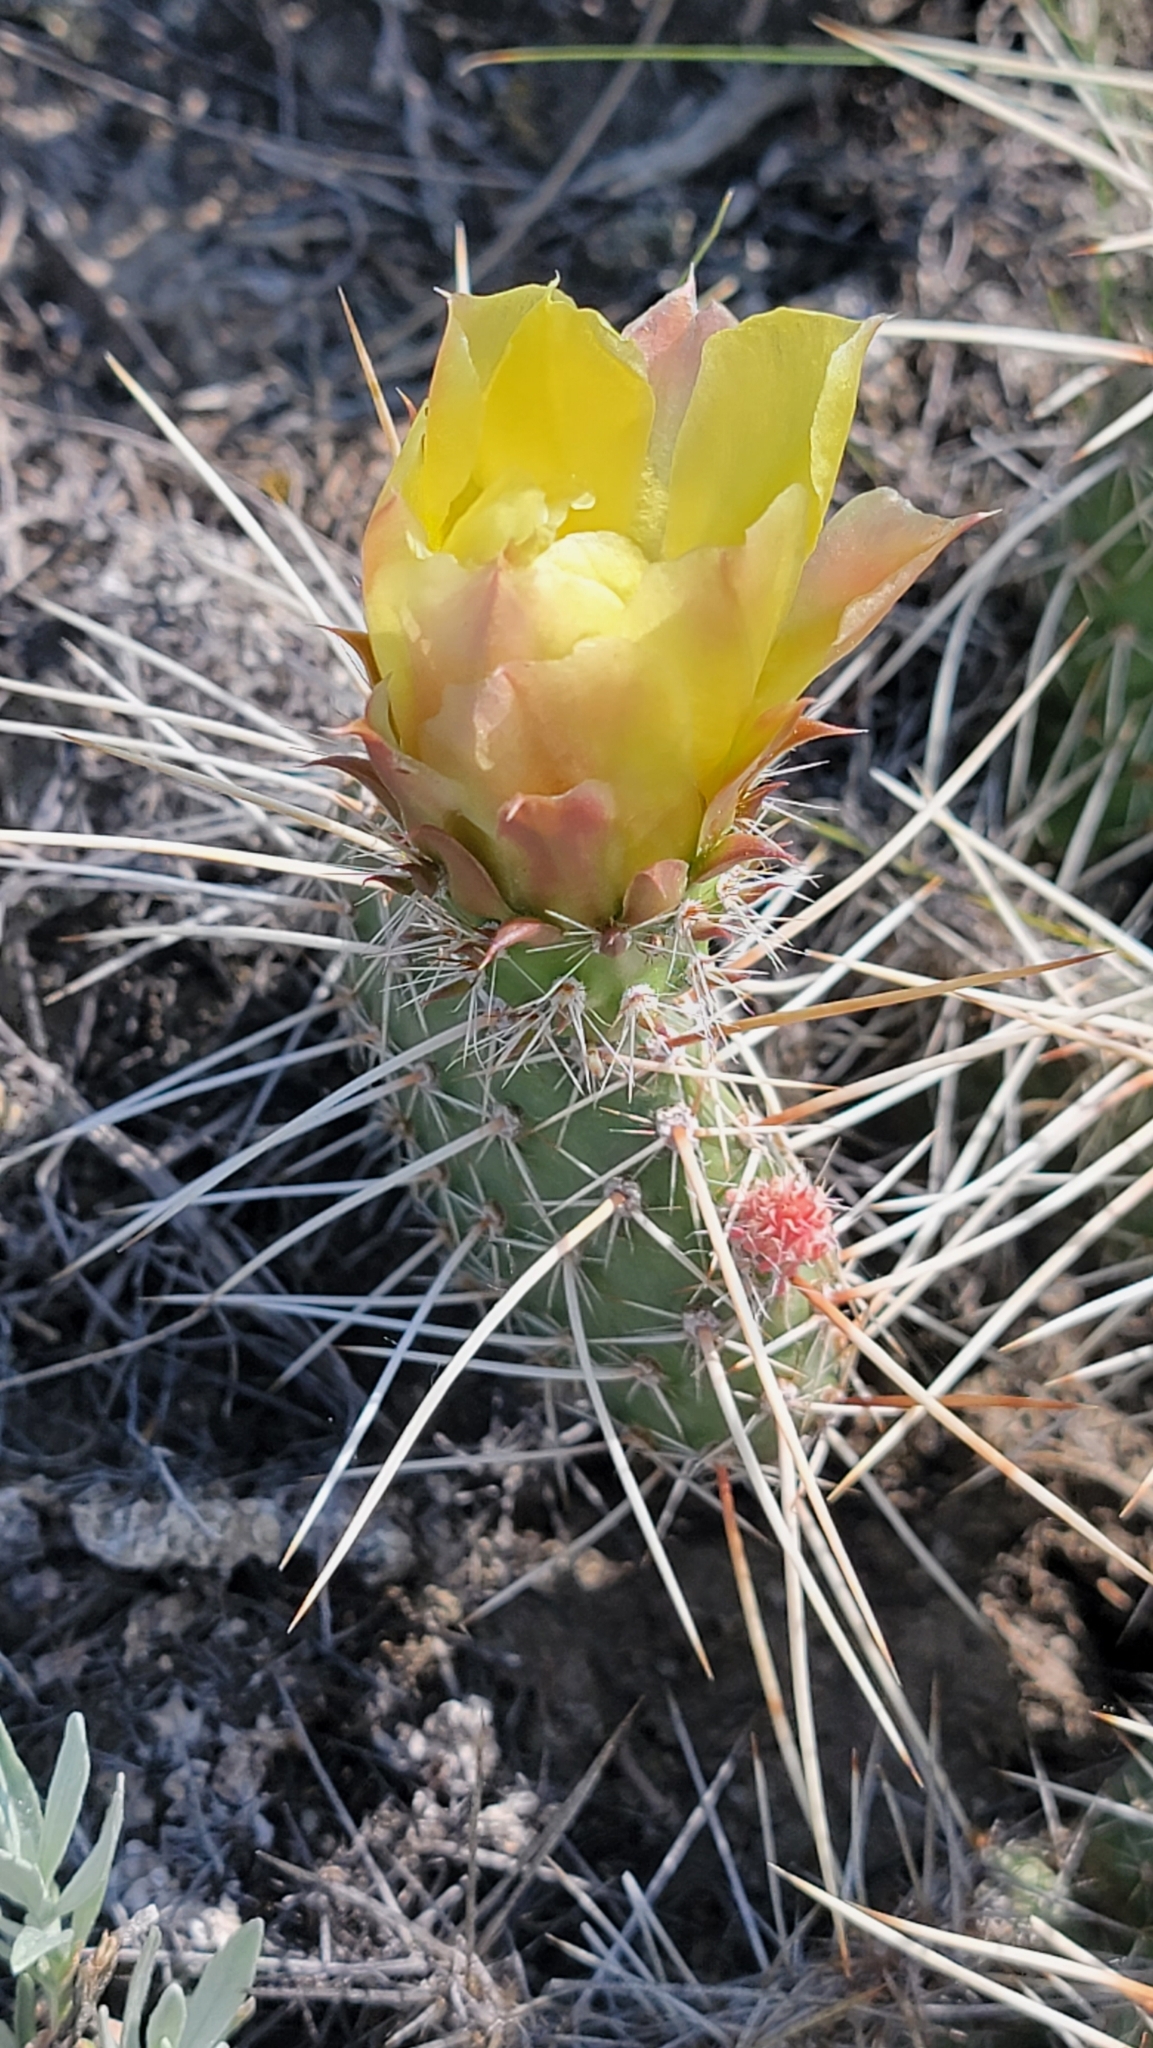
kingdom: Plantae
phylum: Tracheophyta
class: Magnoliopsida
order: Caryophyllales
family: Cactaceae
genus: Opuntia
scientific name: Opuntia polyacantha
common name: Plains prickly-pear
